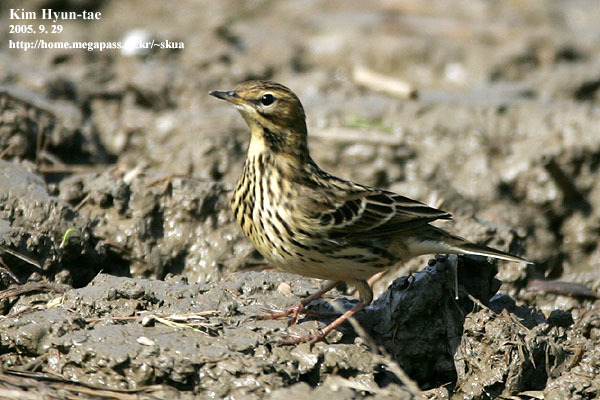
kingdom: Animalia
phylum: Chordata
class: Aves
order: Passeriformes
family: Motacillidae
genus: Anthus
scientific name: Anthus cervinus
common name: Red-throated pipit
